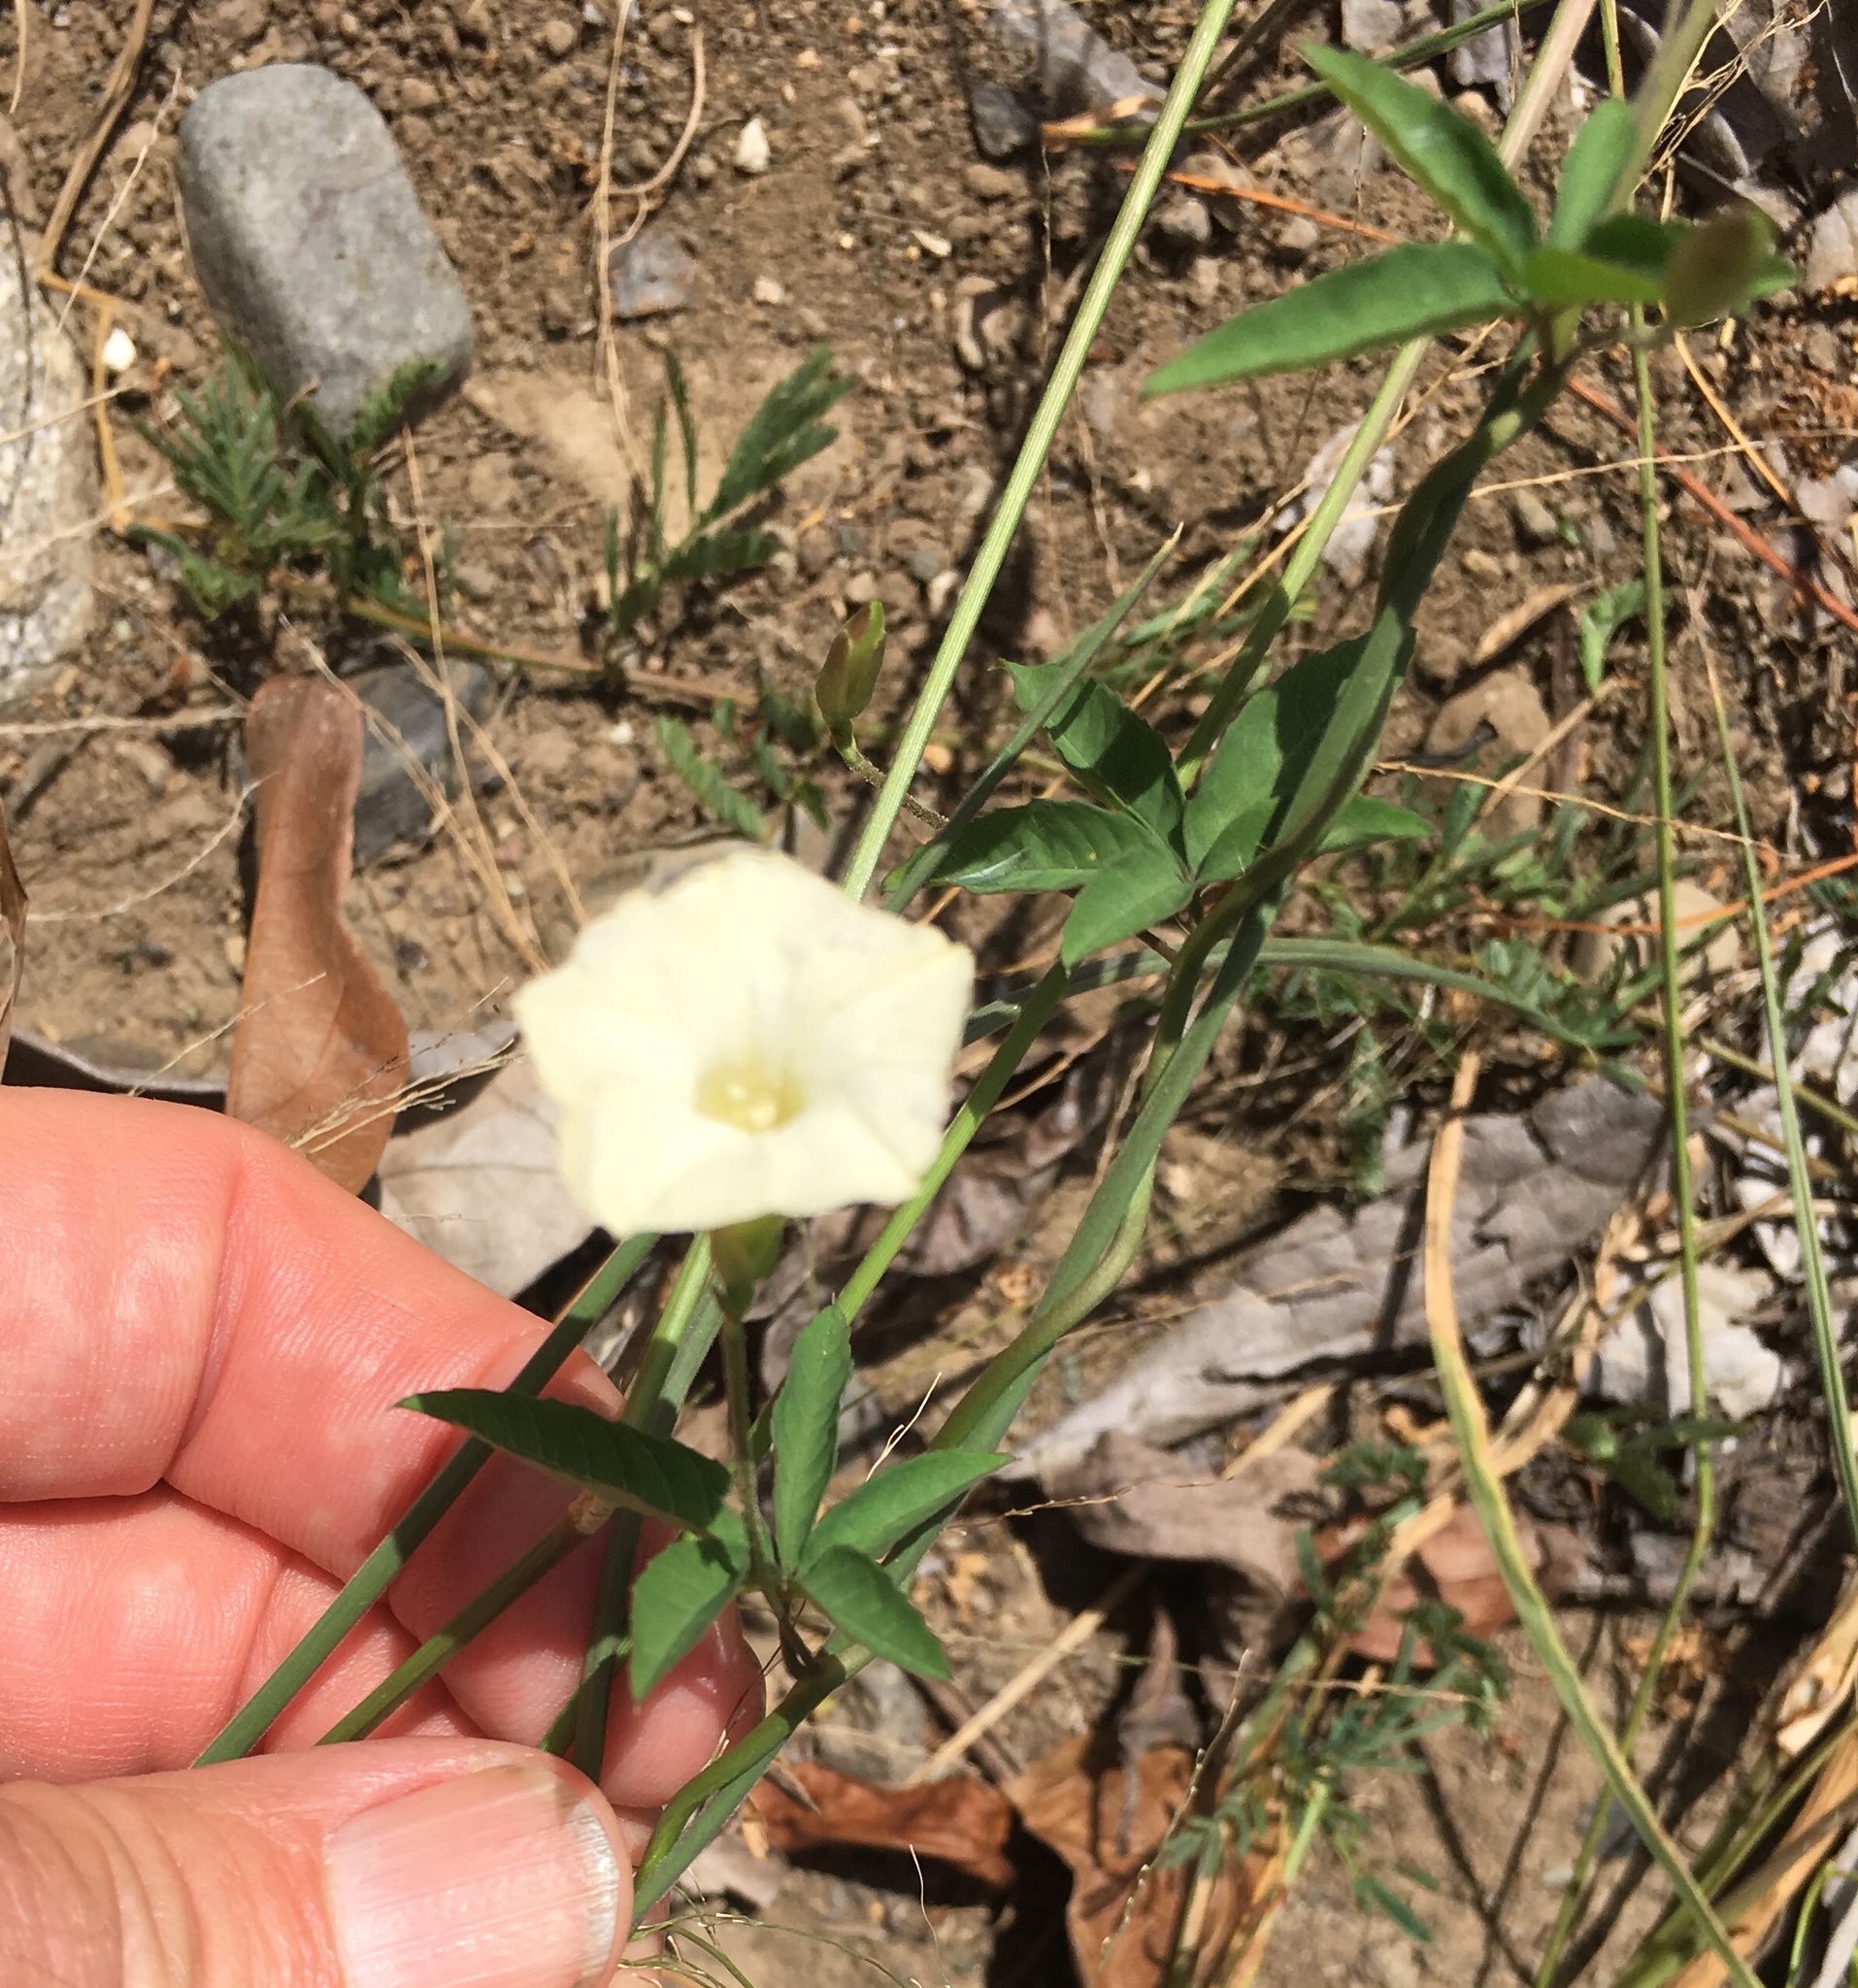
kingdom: Plantae
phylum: Tracheophyta
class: Magnoliopsida
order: Solanales
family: Convolvulaceae
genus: Distimake
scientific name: Distimake quinquefolius
